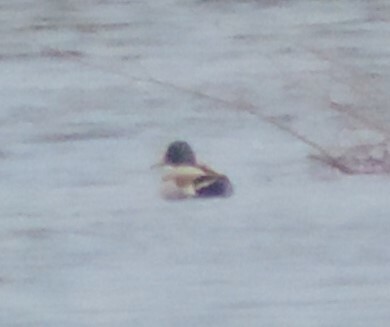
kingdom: Animalia
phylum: Chordata
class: Aves
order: Anseriformes
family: Anatidae
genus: Anas
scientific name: Anas platyrhynchos
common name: Mallard
